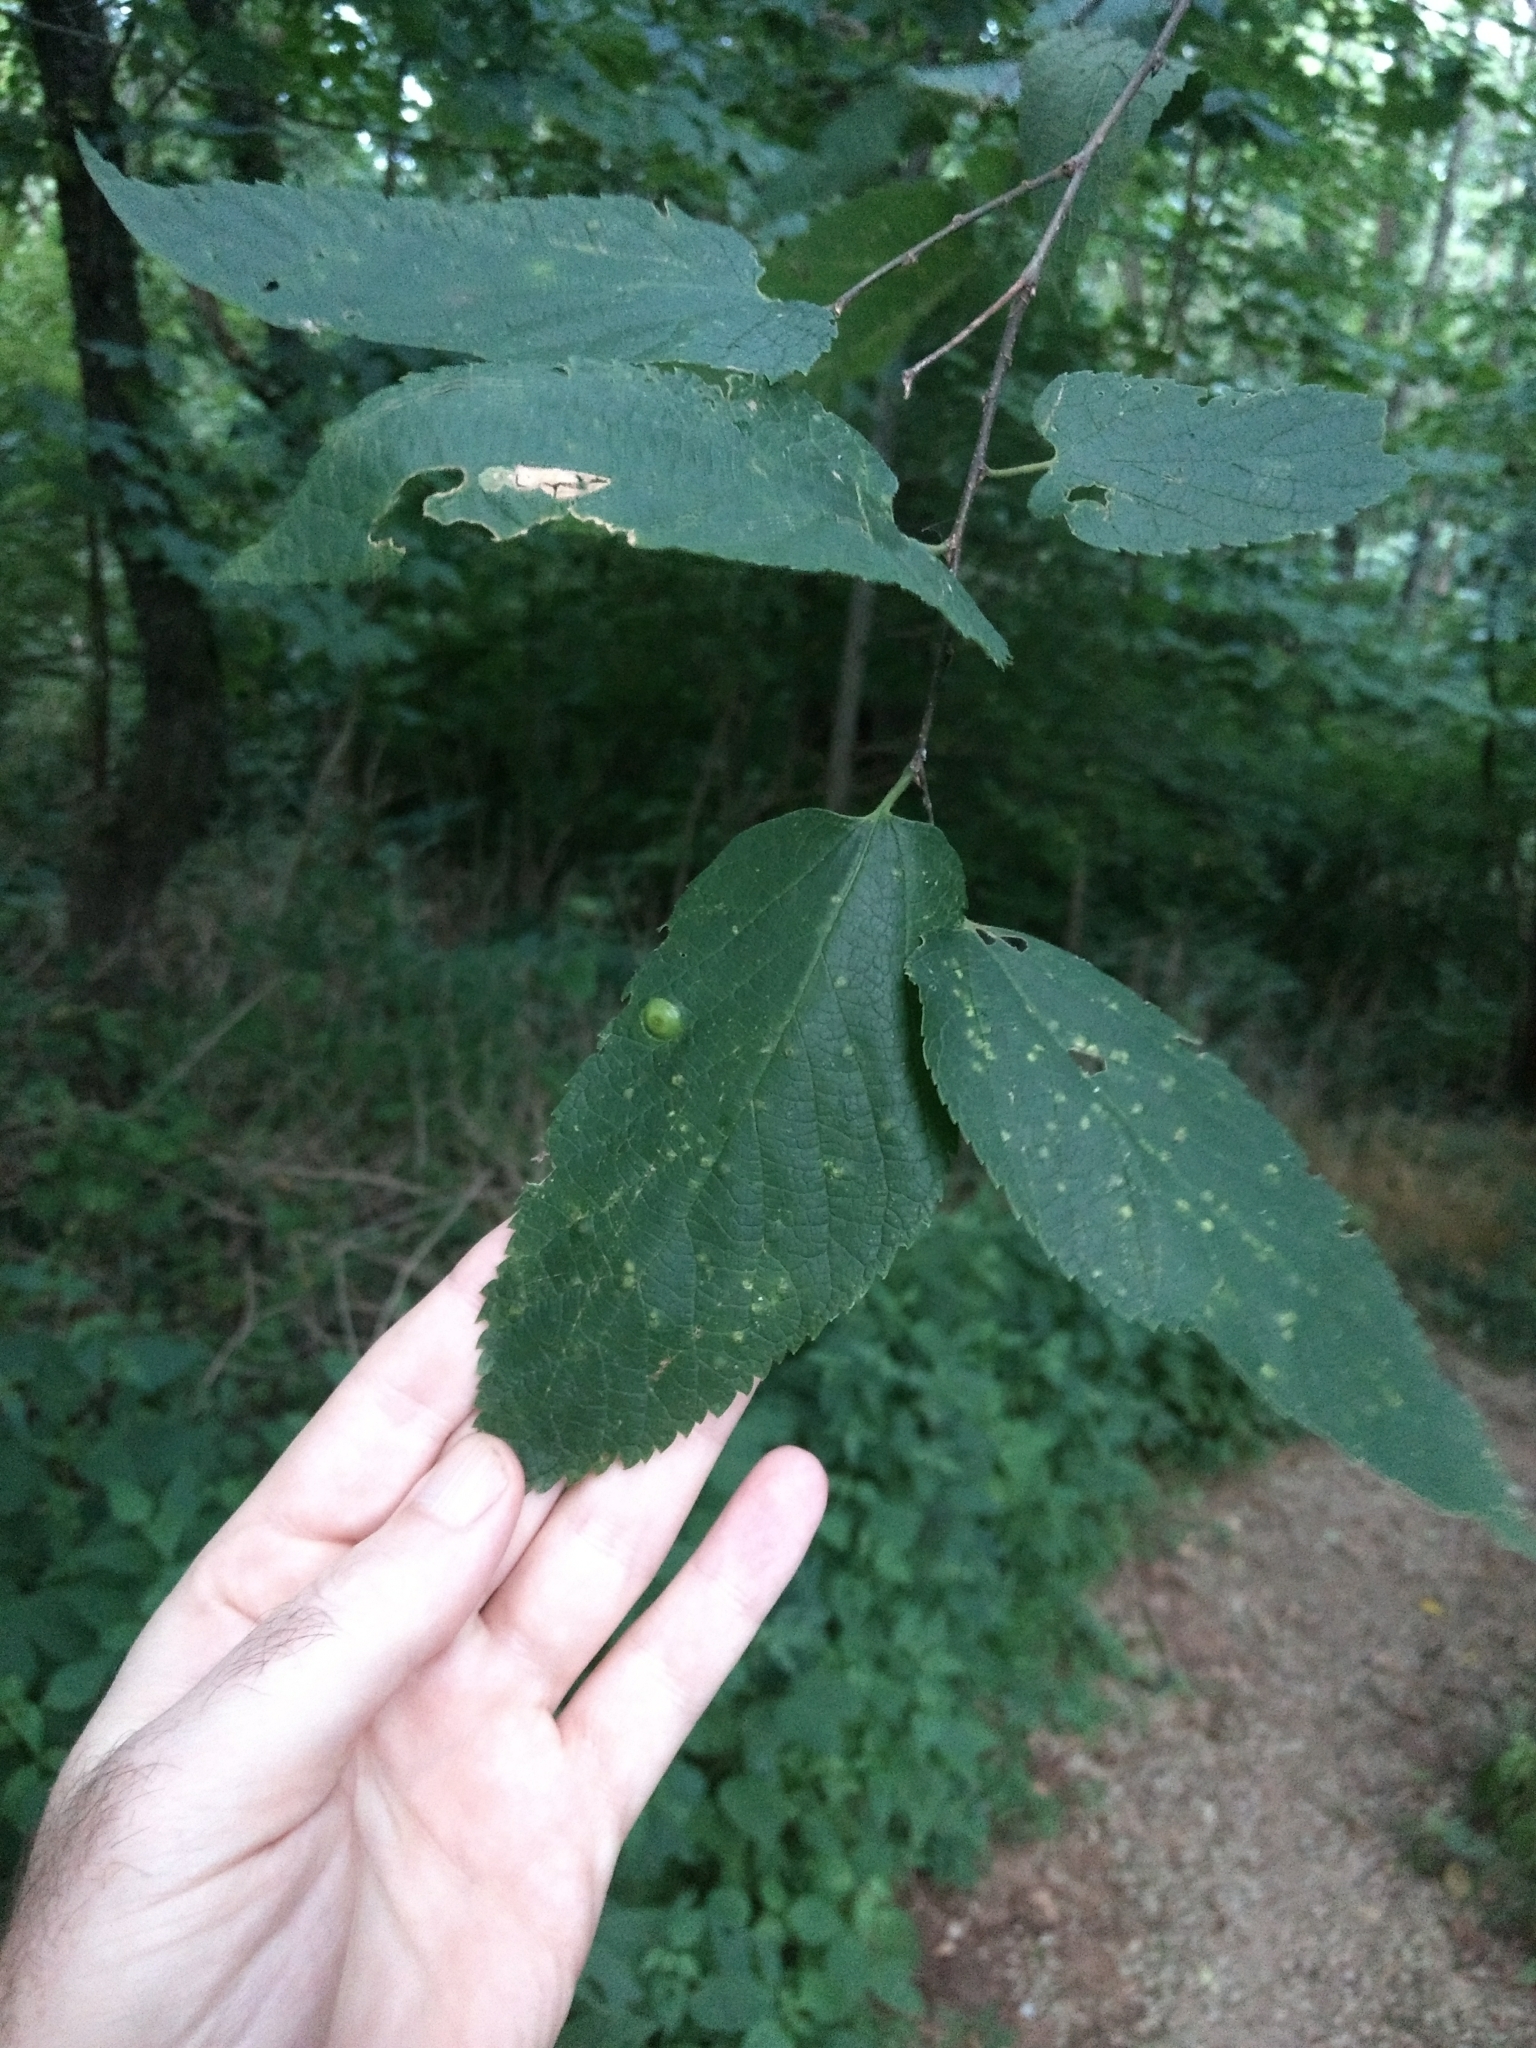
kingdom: Plantae
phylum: Tracheophyta
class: Magnoliopsida
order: Rosales
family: Cannabaceae
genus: Celtis
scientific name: Celtis occidentalis
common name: Common hackberry
